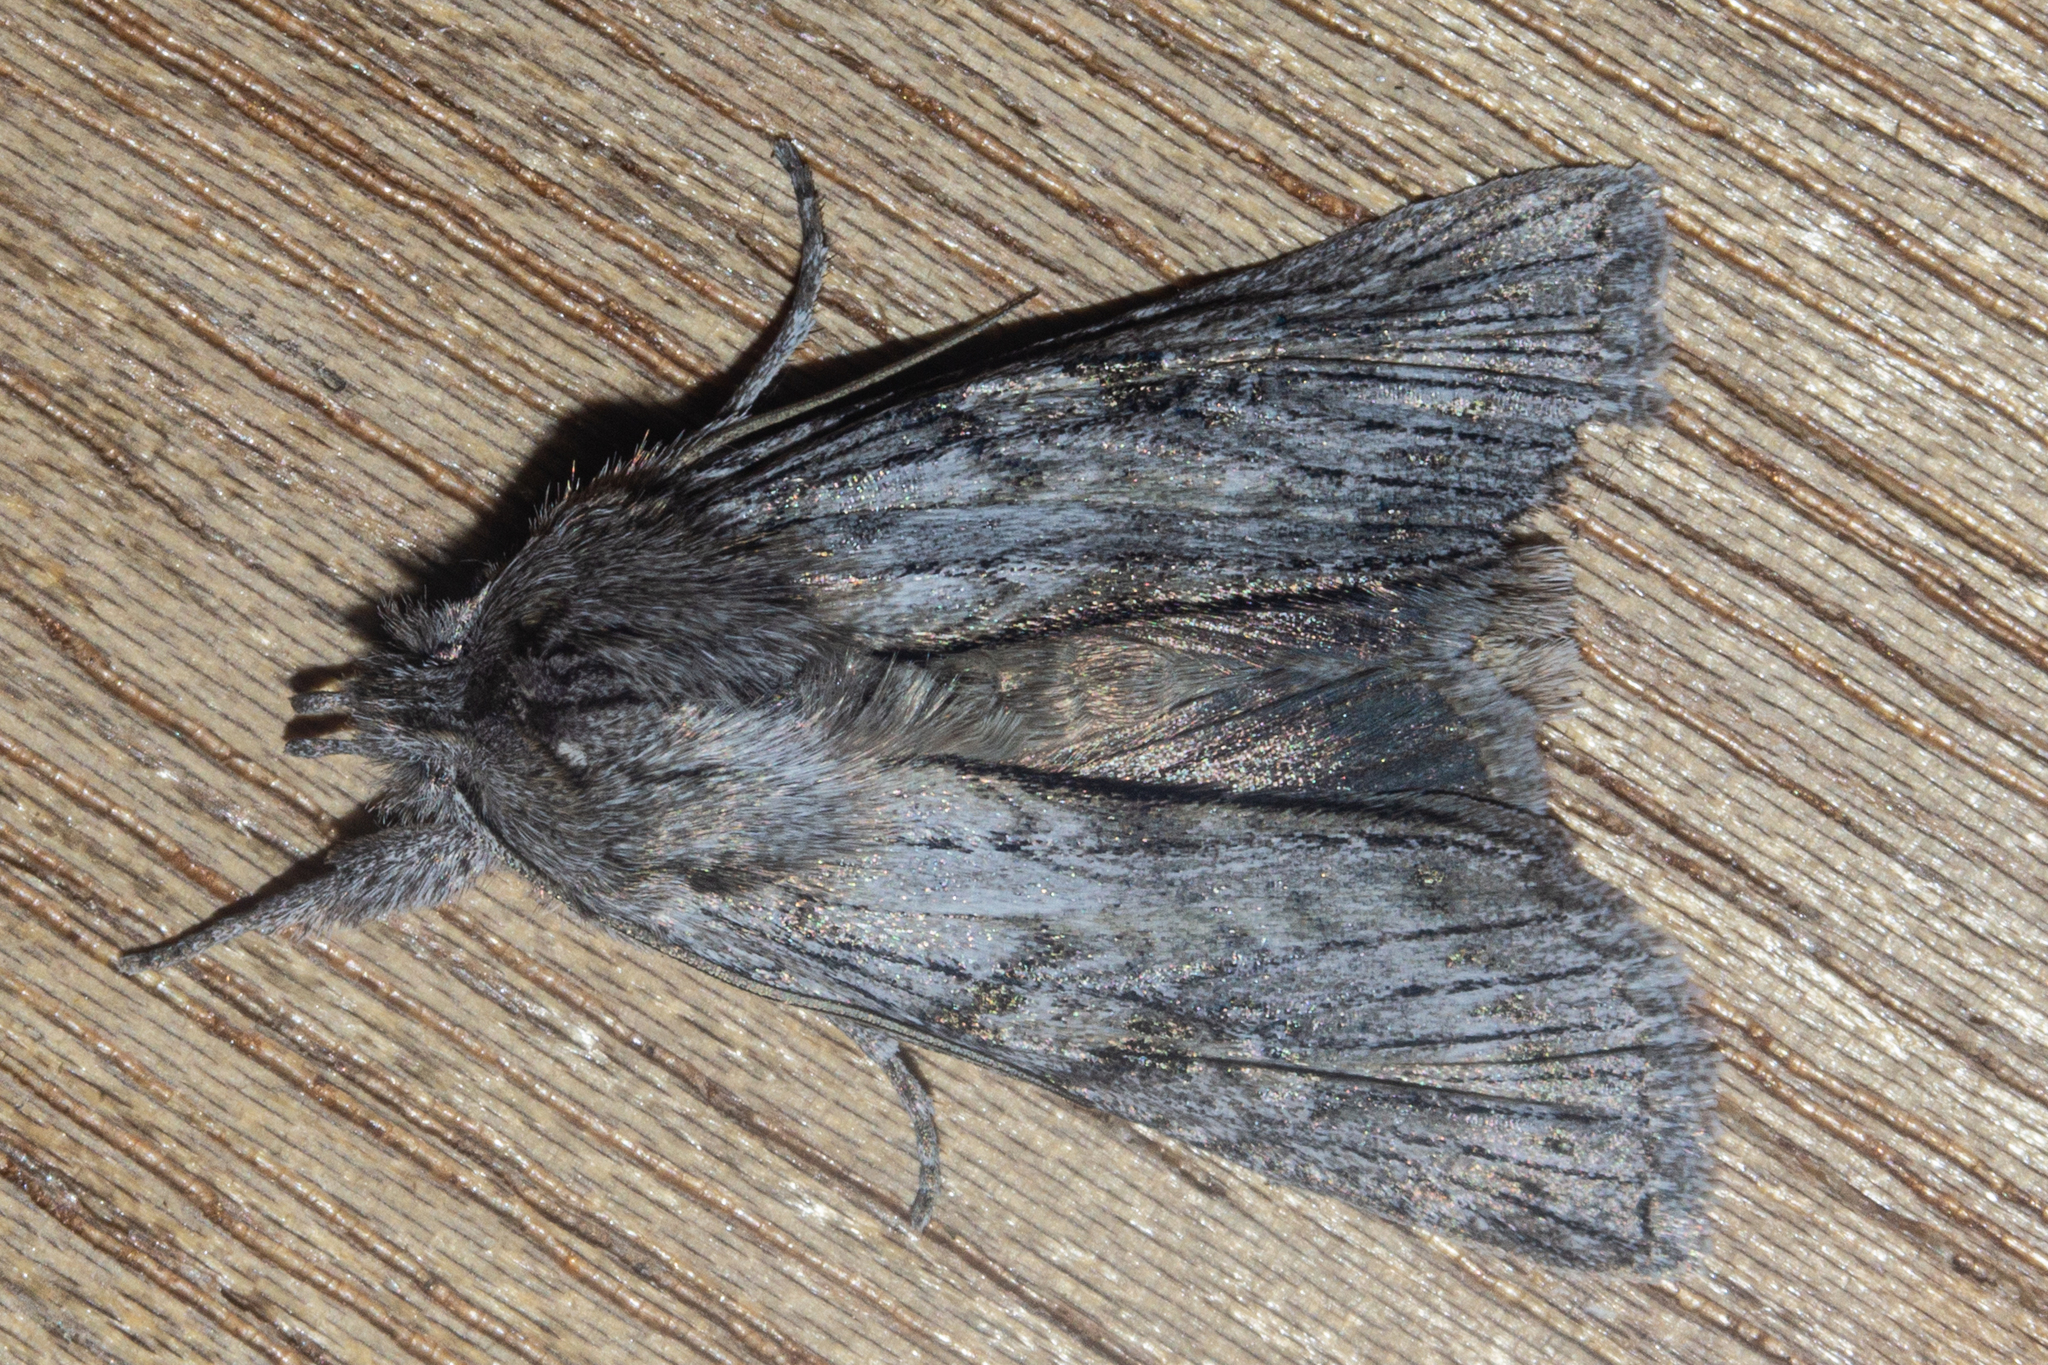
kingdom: Animalia
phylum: Arthropoda
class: Insecta
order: Lepidoptera
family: Noctuidae
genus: Physetica
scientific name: Physetica phricias
